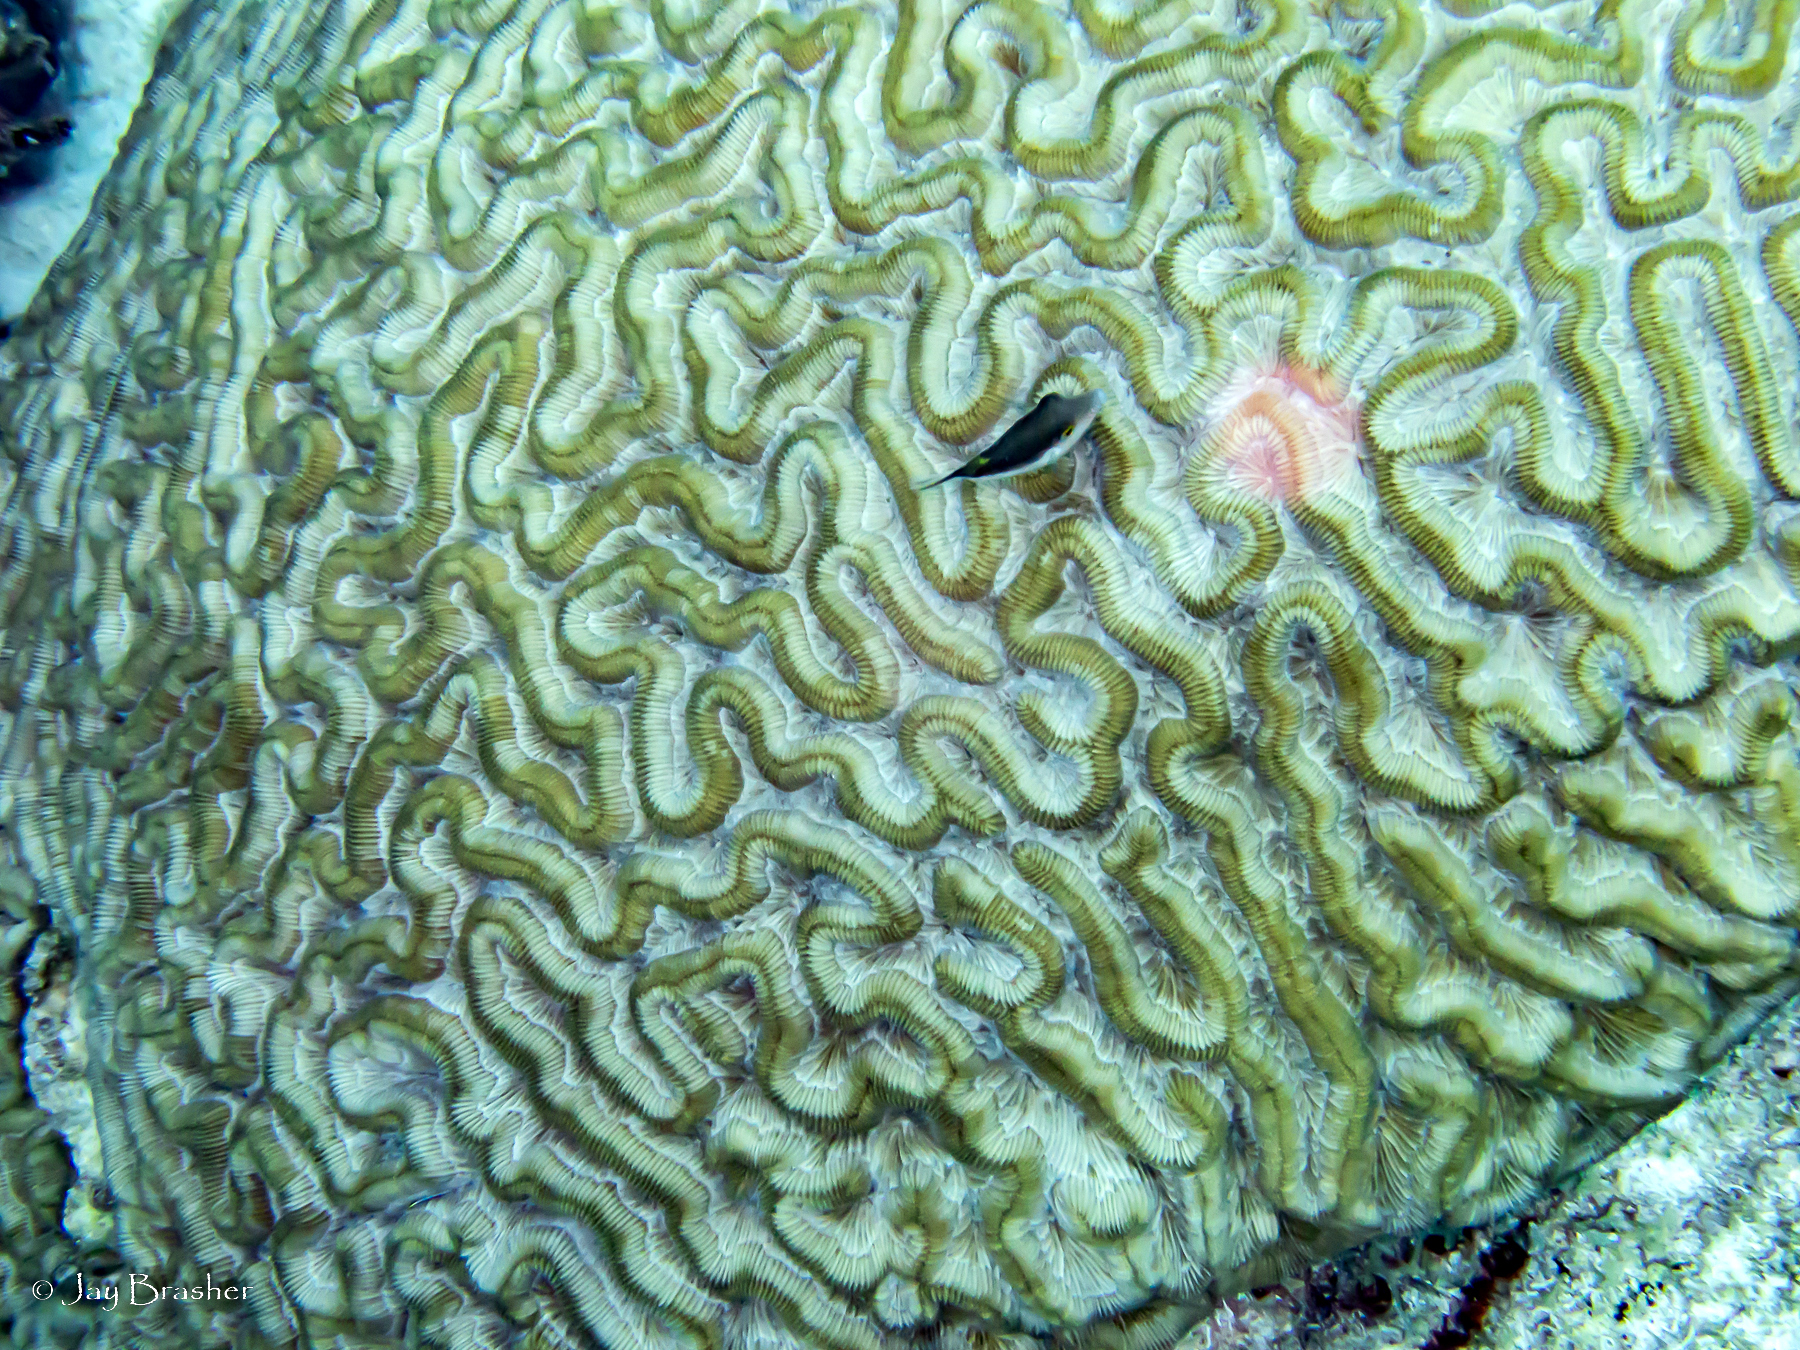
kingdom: Animalia
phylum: Chordata
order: Tetraodontiformes
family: Tetraodontidae
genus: Canthigaster
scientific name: Canthigaster rostrata
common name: Caribbean sharpnose-puffer
